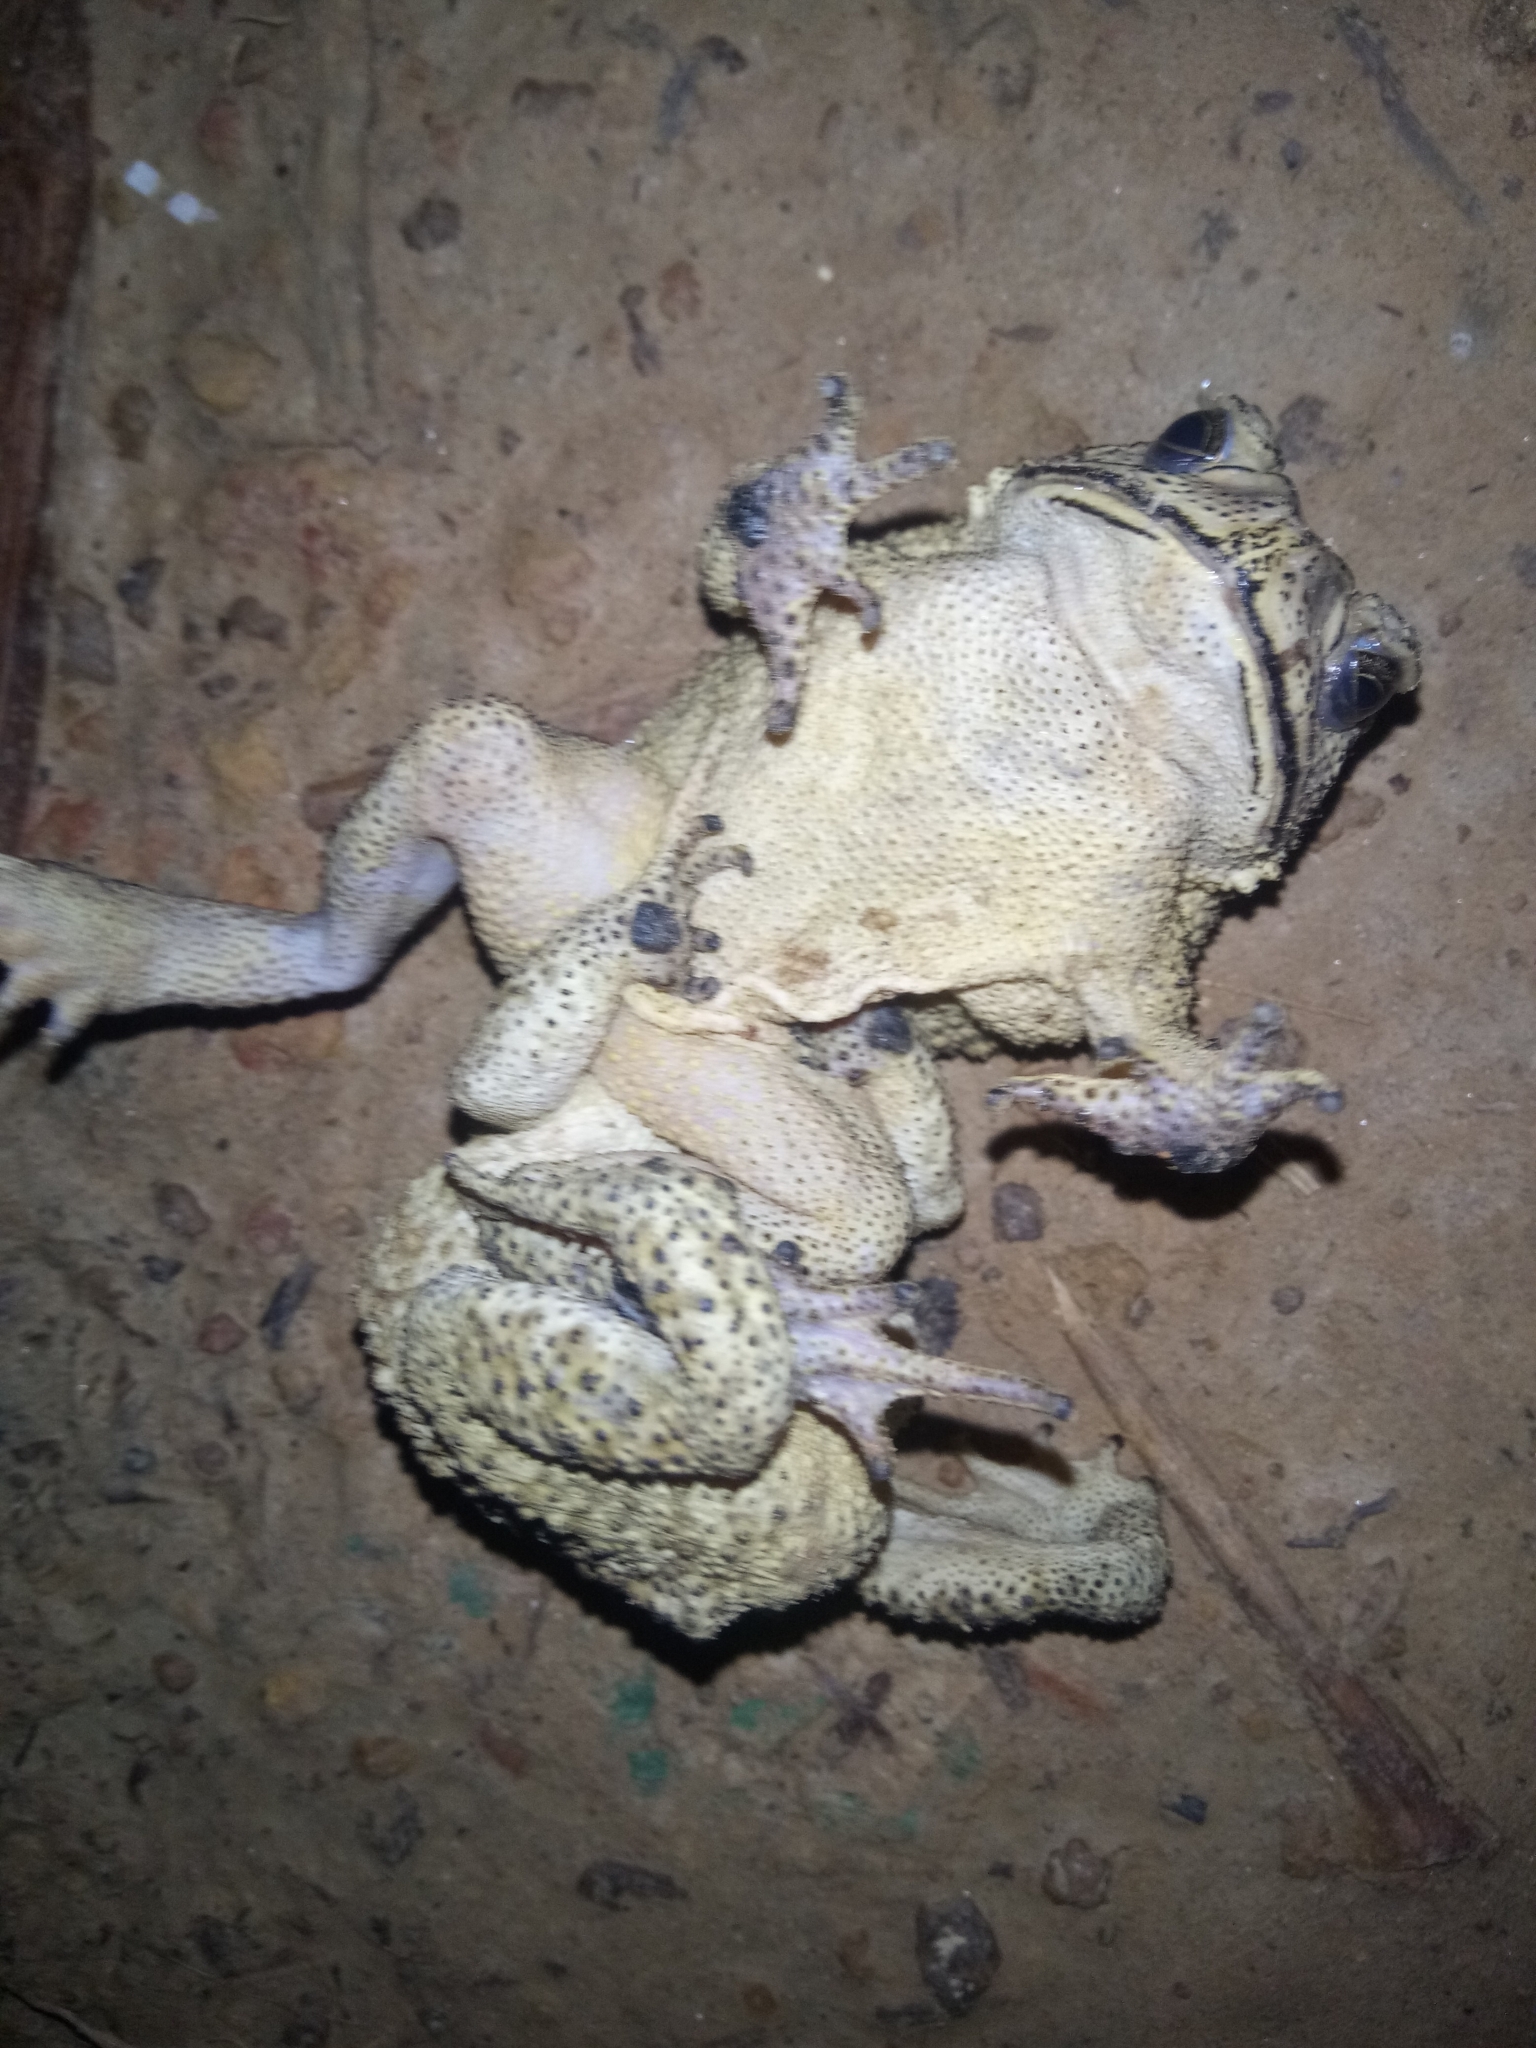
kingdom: Animalia
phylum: Chordata
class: Amphibia
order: Anura
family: Bufonidae
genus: Duttaphrynus
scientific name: Duttaphrynus melanostictus
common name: Common sunda toad
